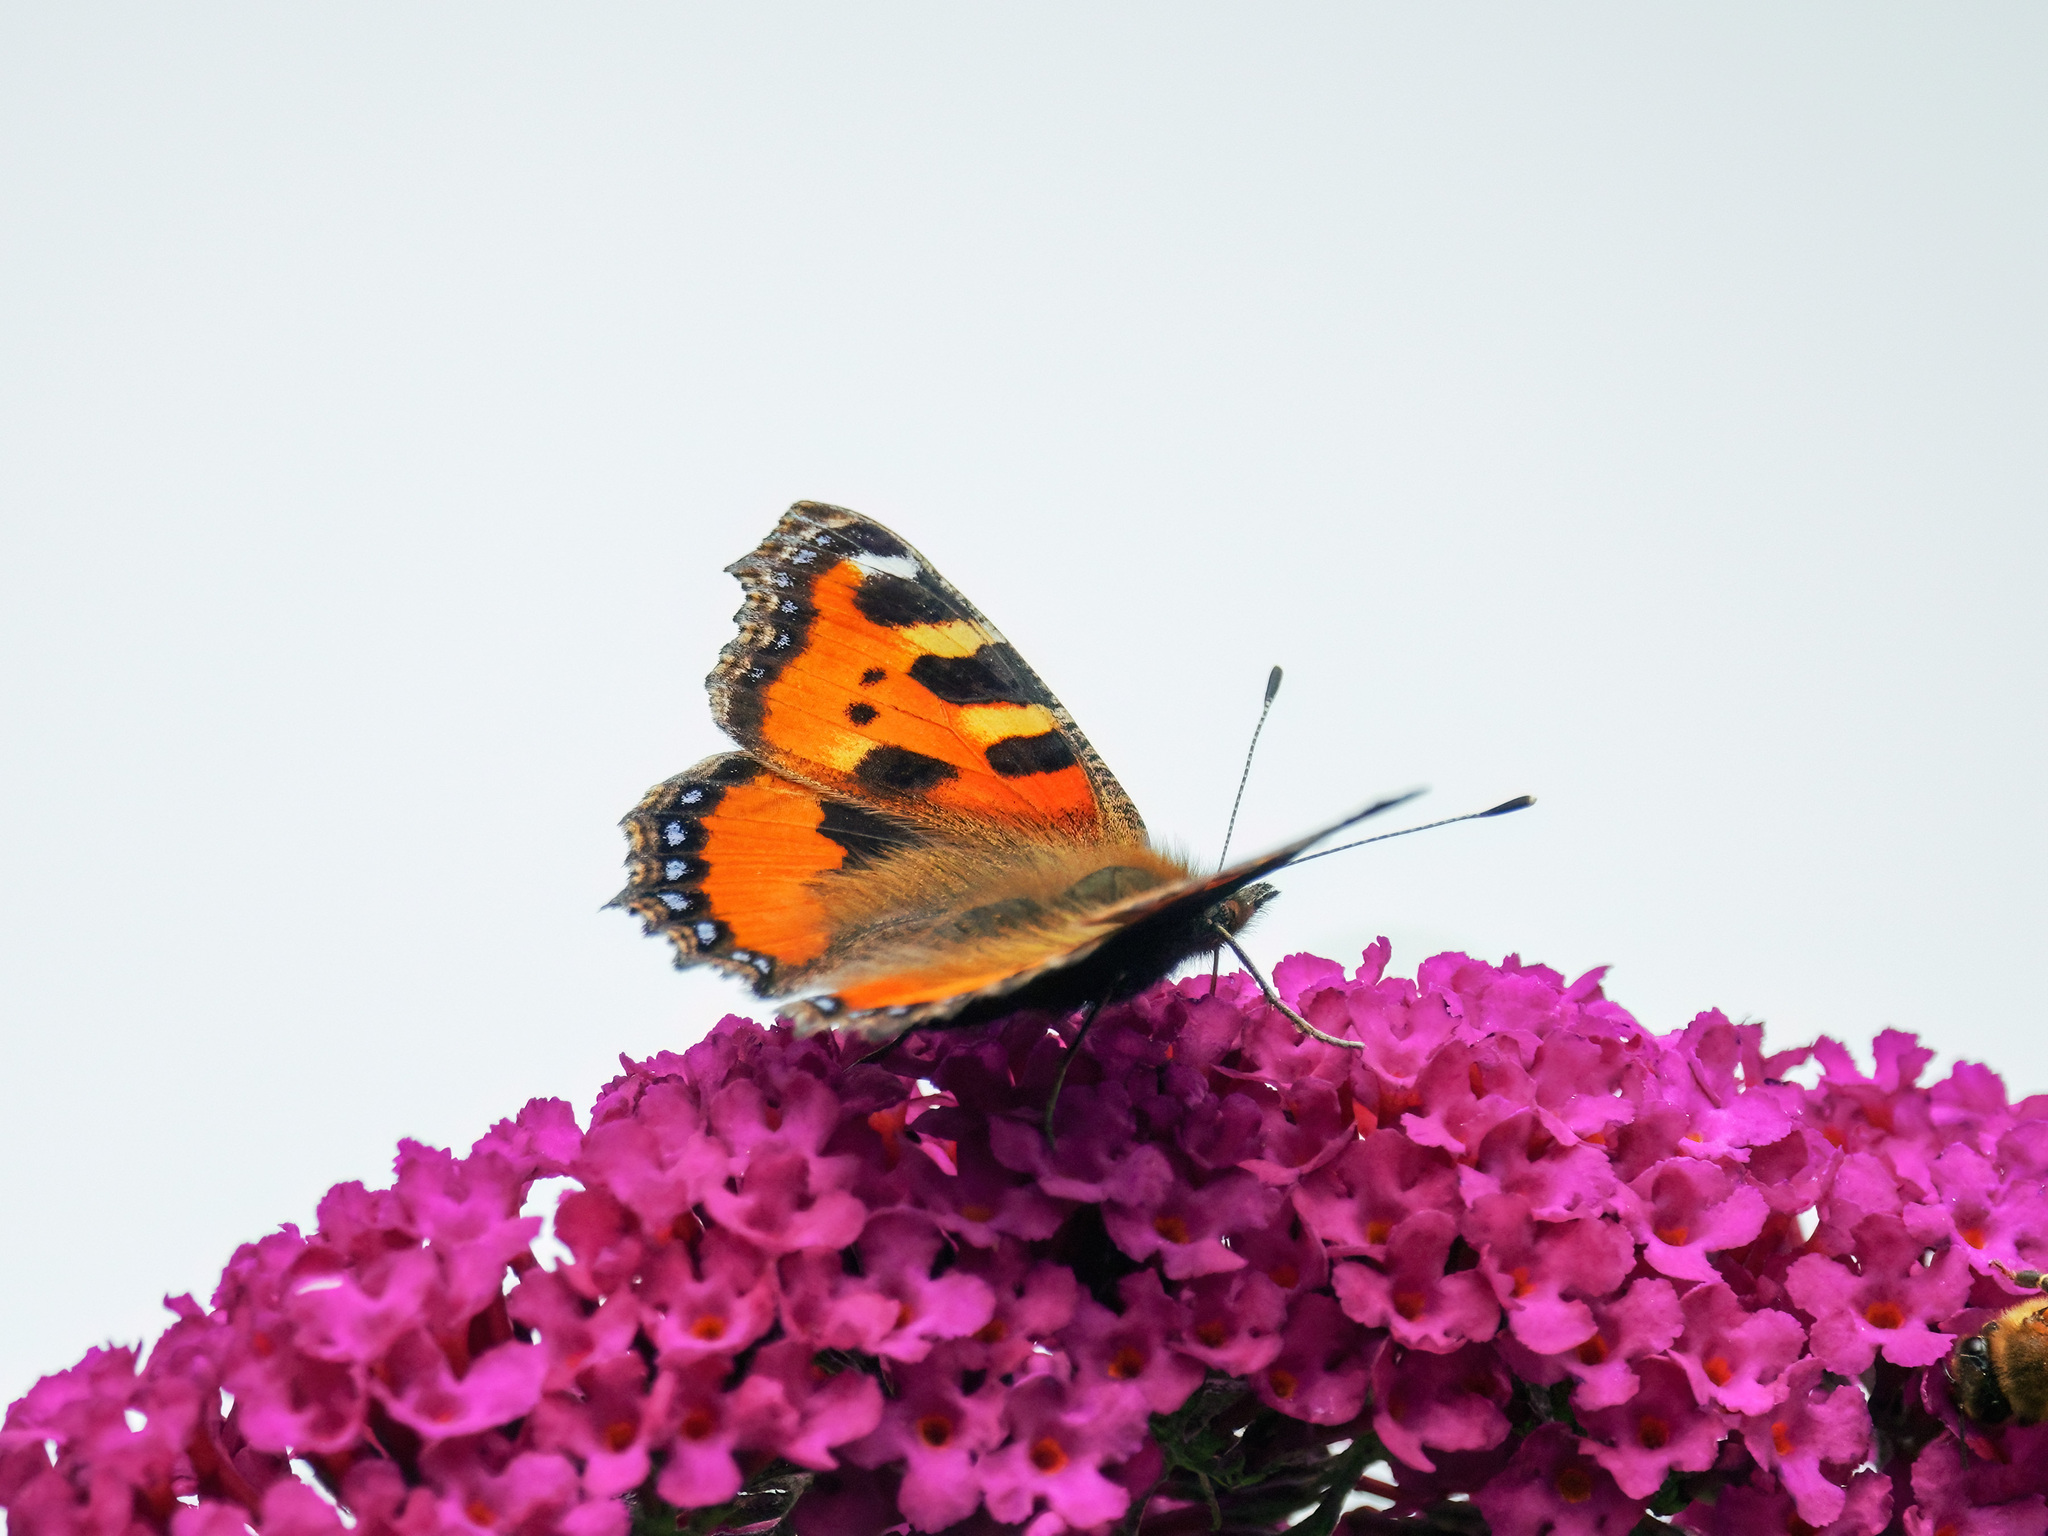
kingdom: Animalia
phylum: Arthropoda
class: Insecta
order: Lepidoptera
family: Nymphalidae
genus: Aglais
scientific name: Aglais urticae
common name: Small tortoiseshell
